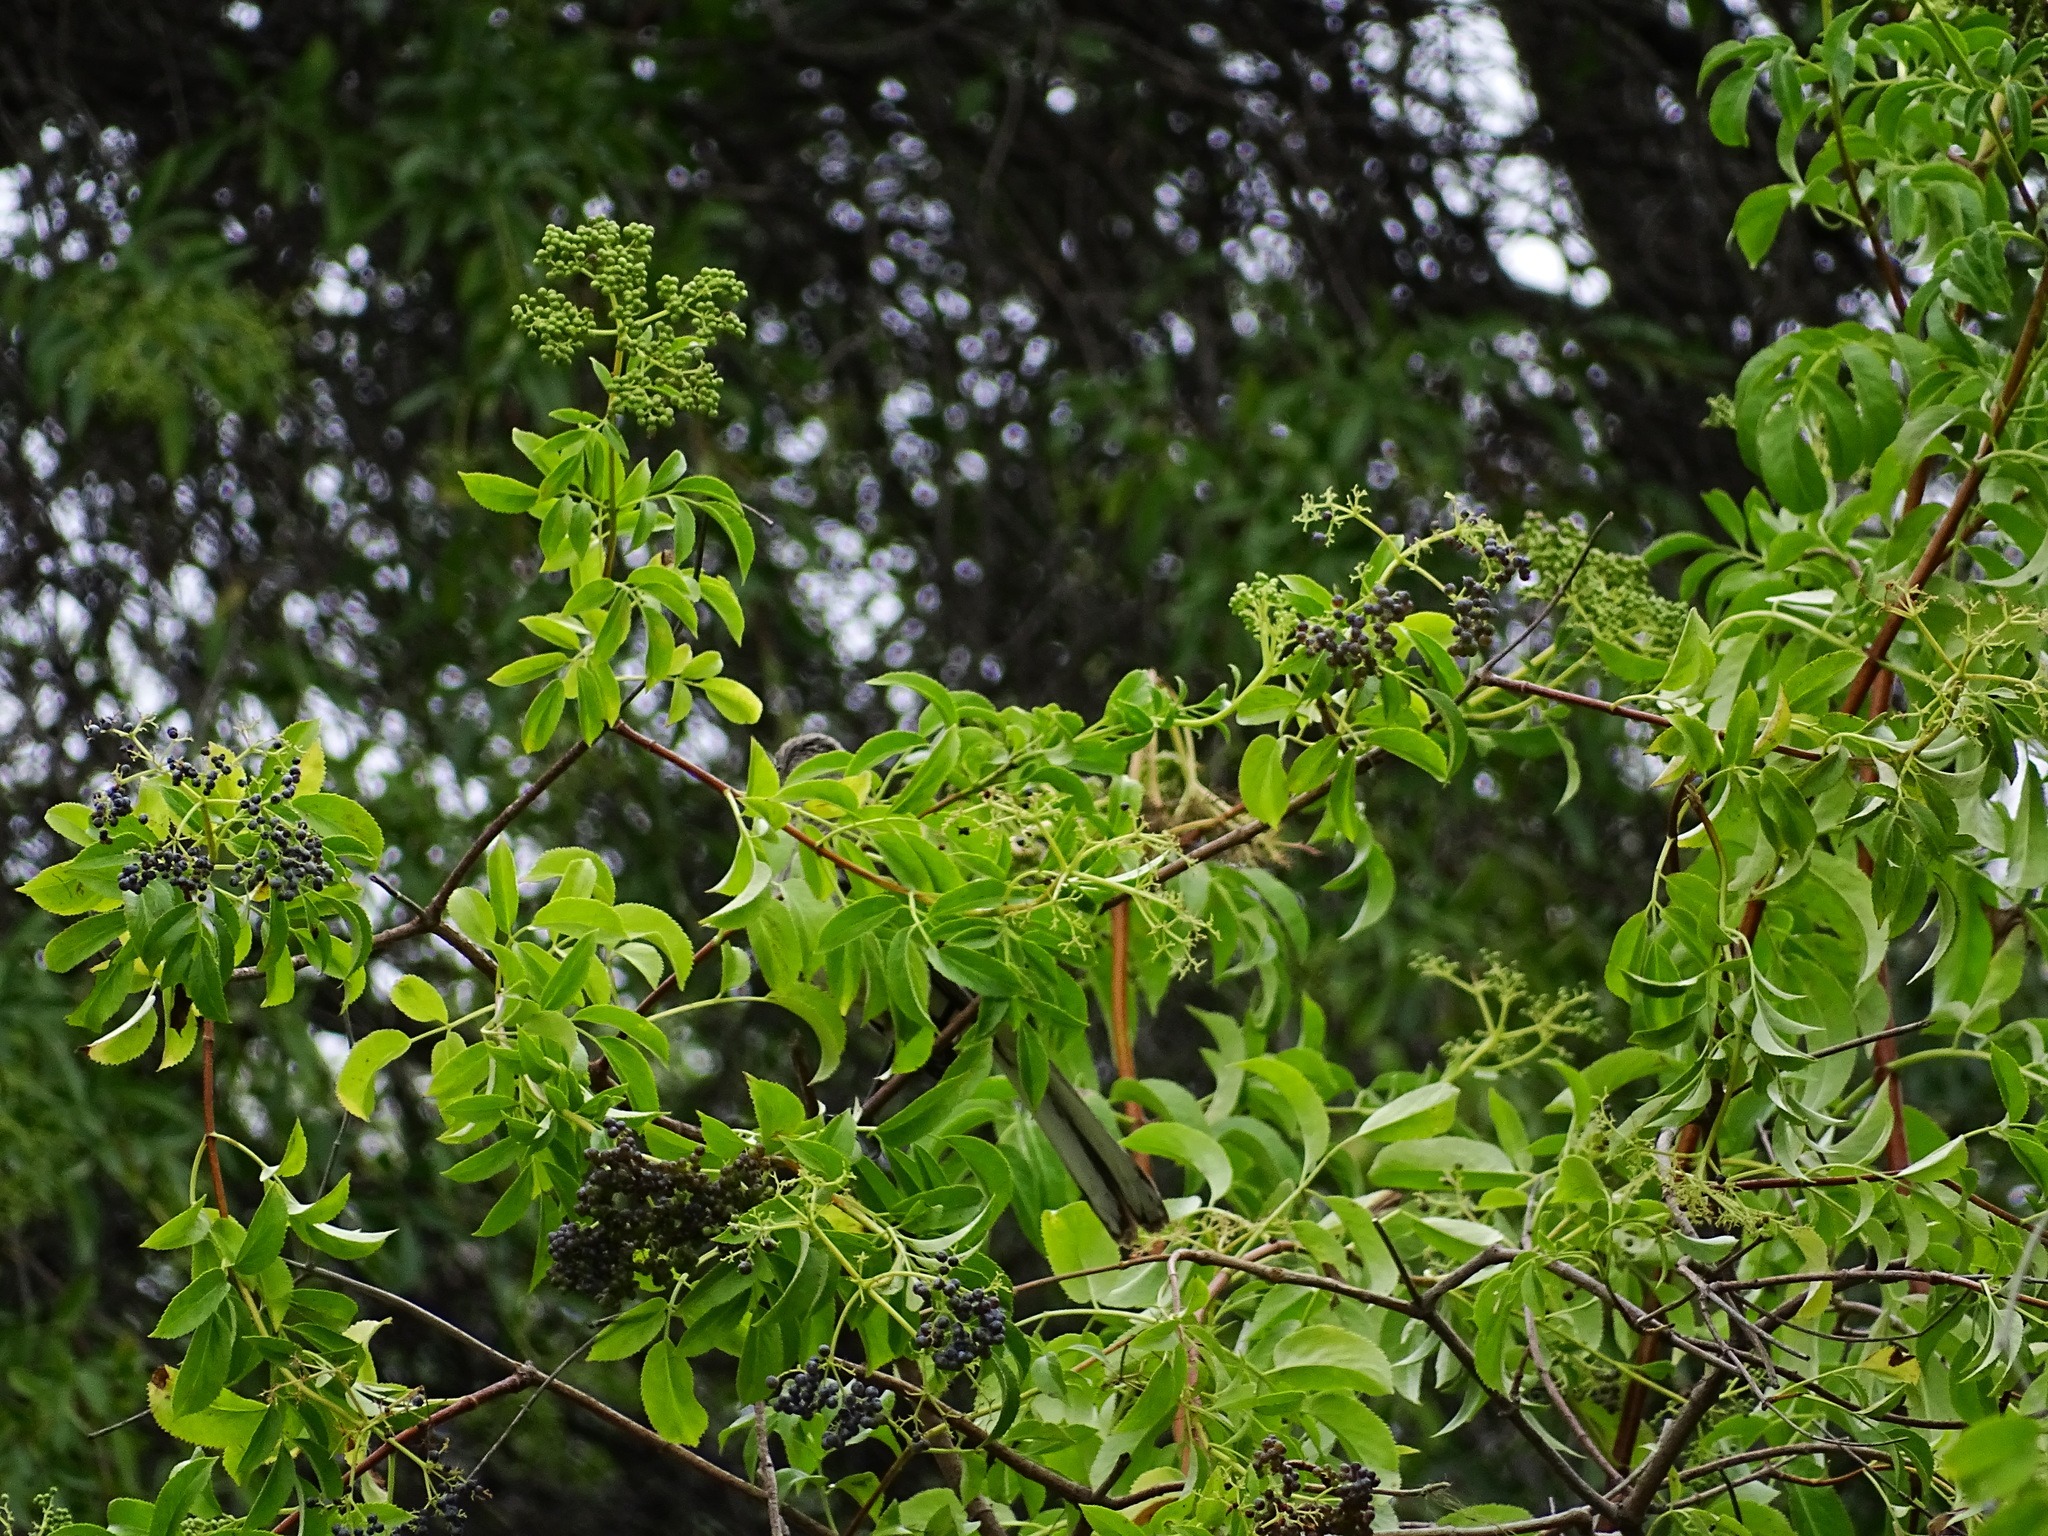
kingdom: Plantae
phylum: Tracheophyta
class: Magnoliopsida
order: Dipsacales
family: Viburnaceae
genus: Sambucus
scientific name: Sambucus cerulea
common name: Blue elder
